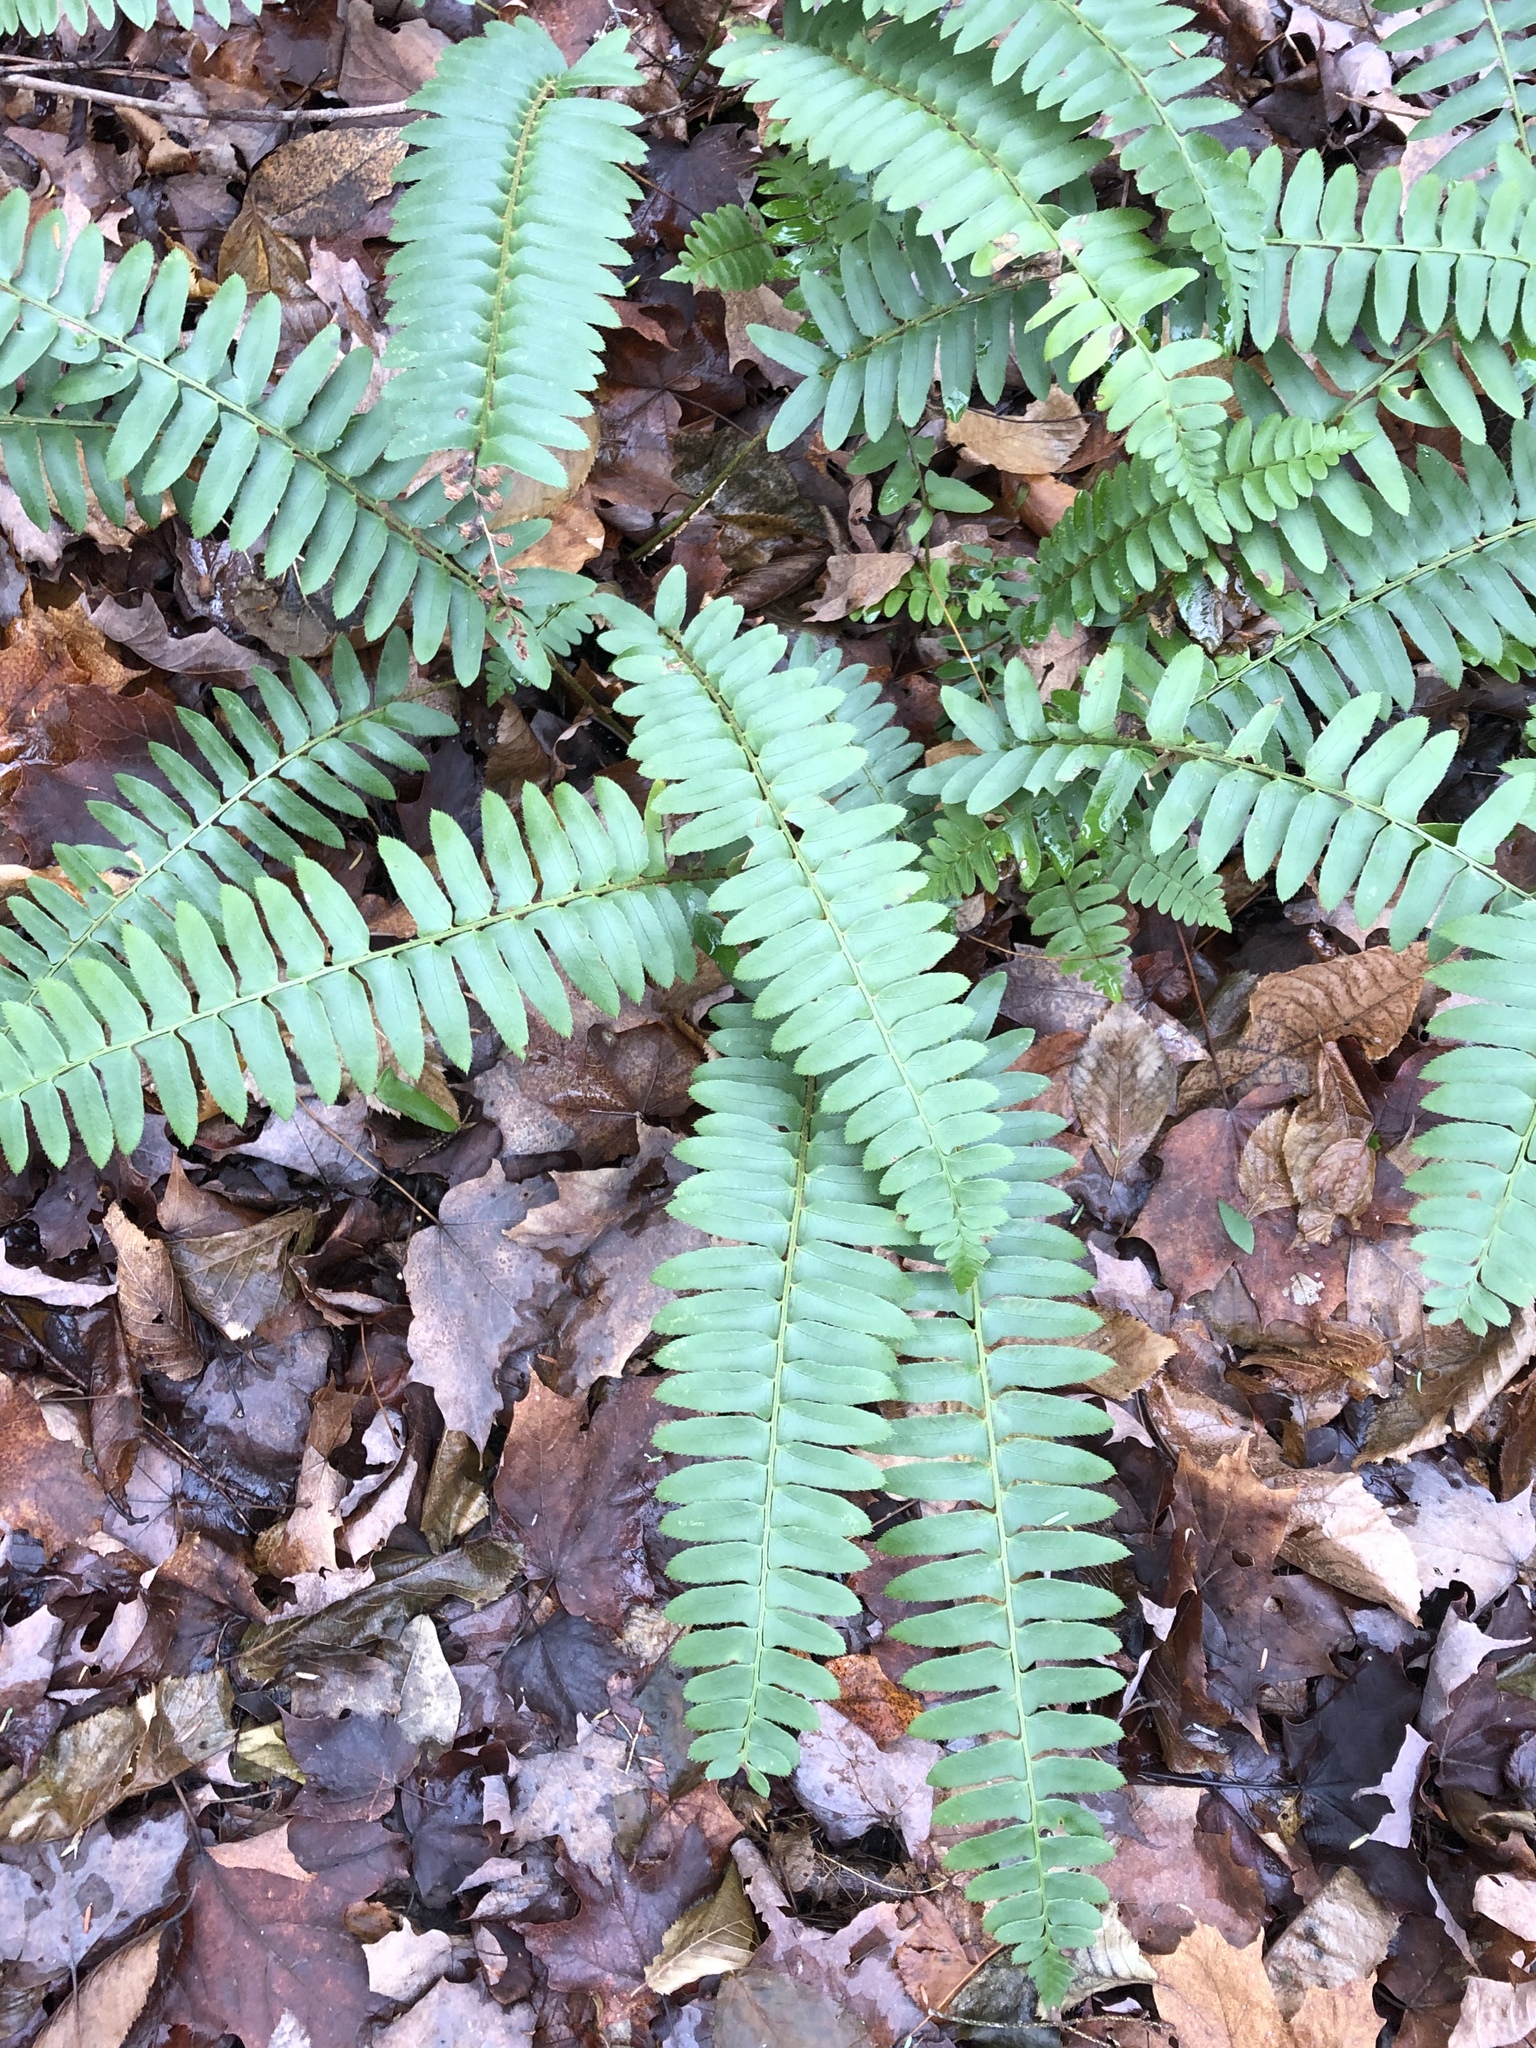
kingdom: Plantae
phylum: Tracheophyta
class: Polypodiopsida
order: Polypodiales
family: Dryopteridaceae
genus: Polystichum
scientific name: Polystichum acrostichoides
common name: Christmas fern
